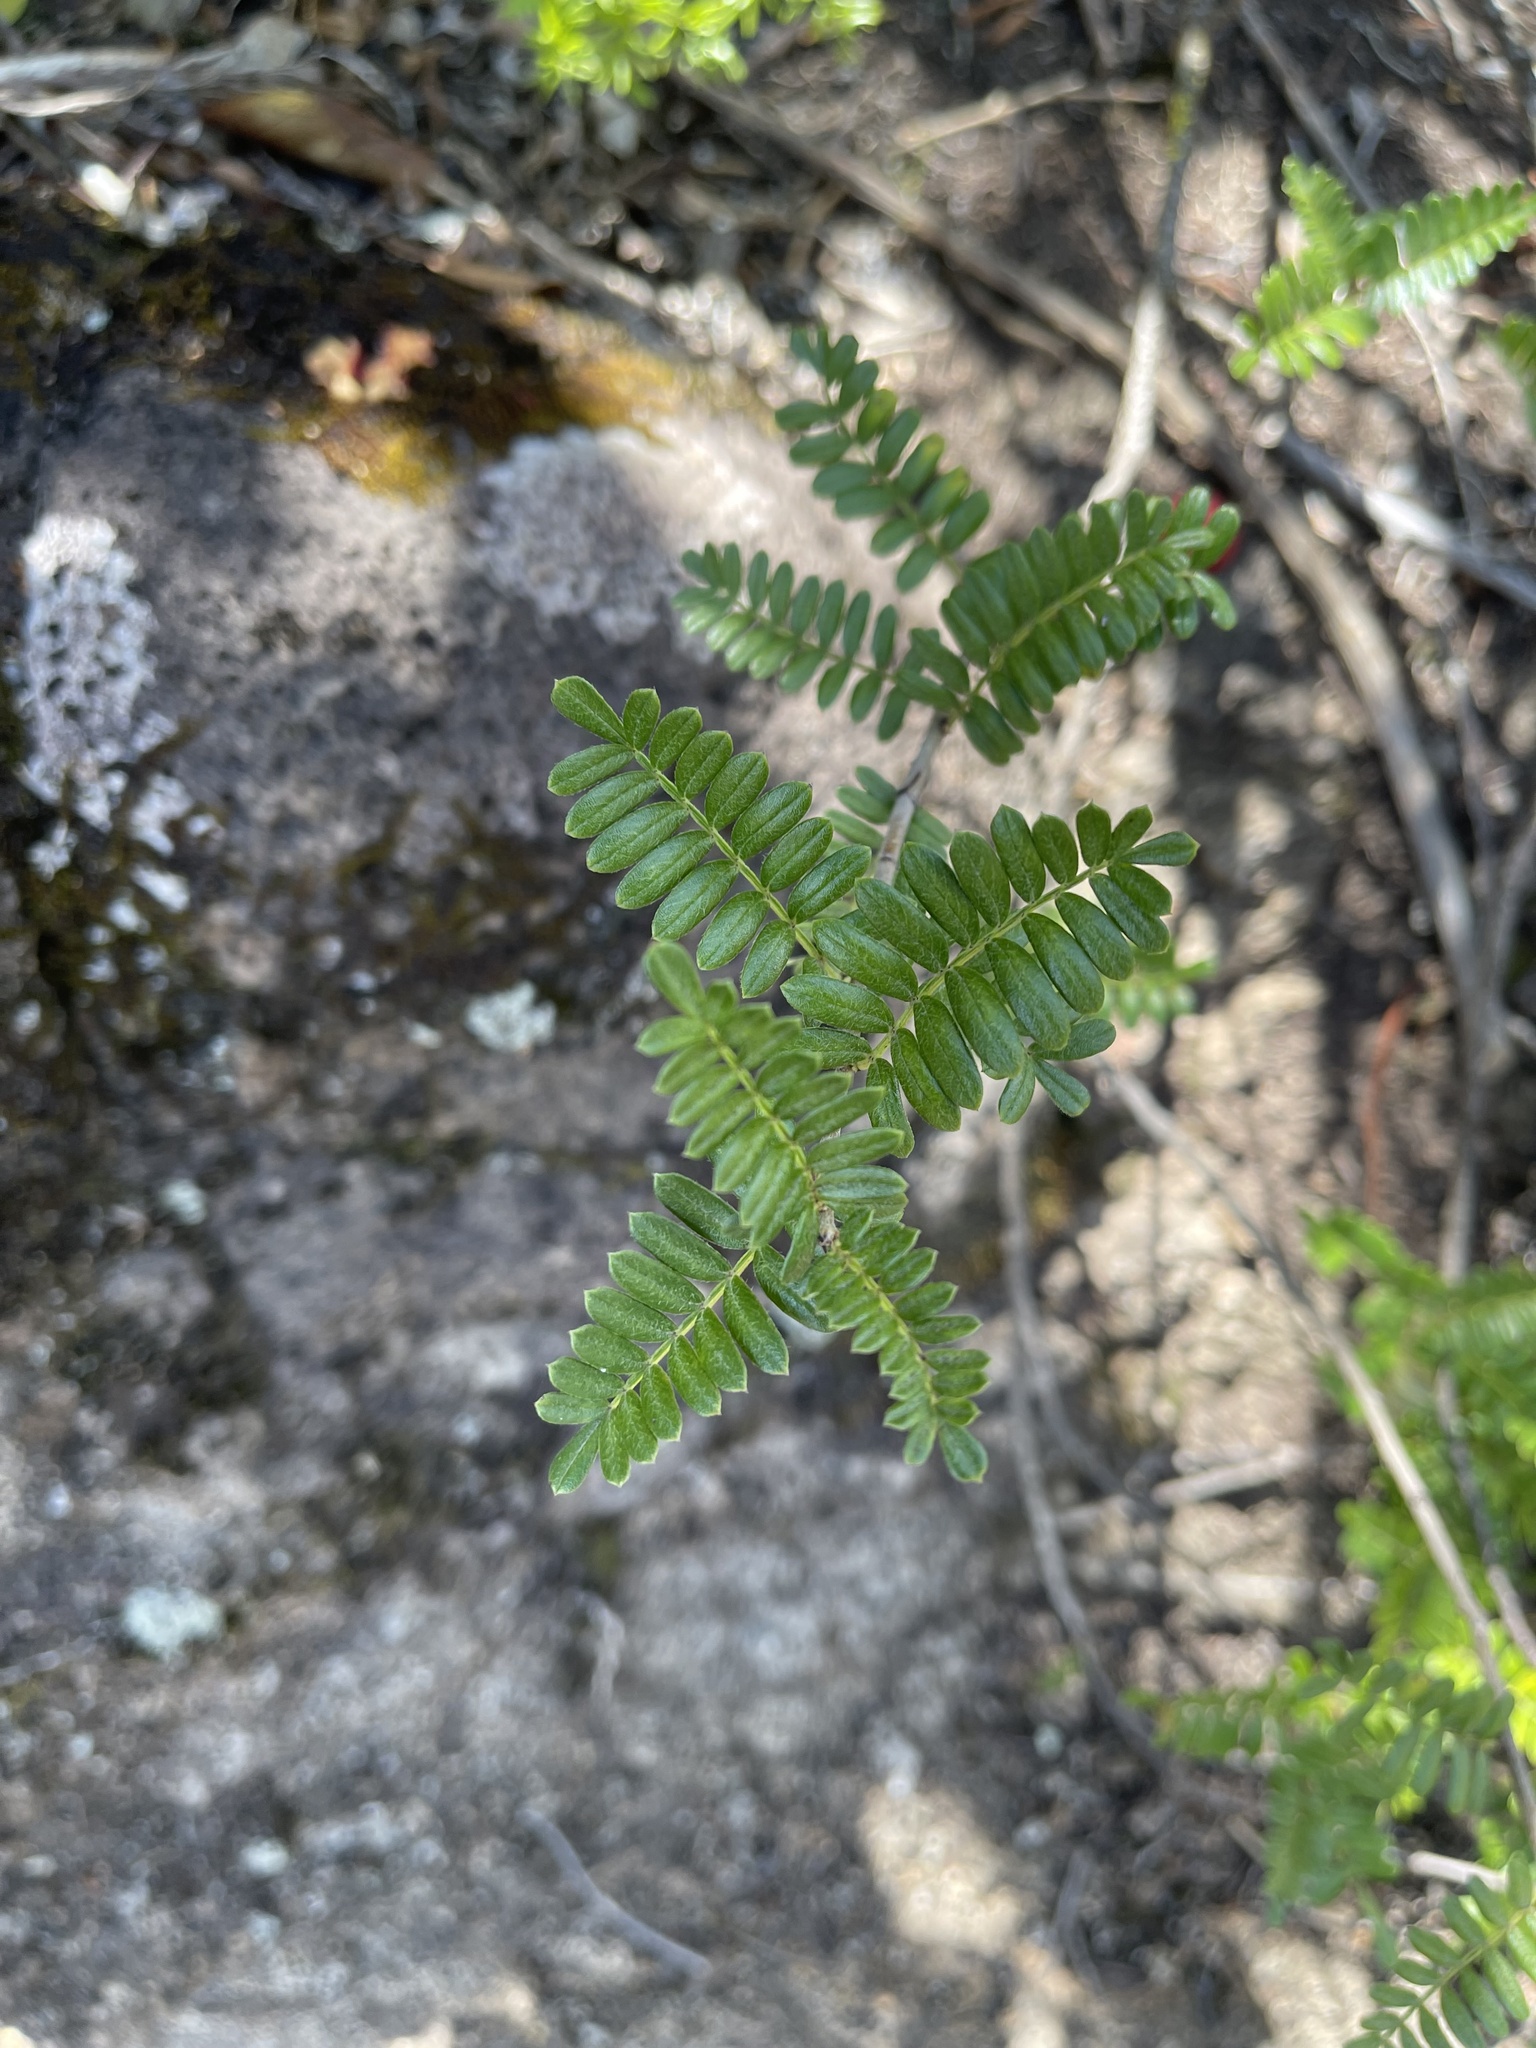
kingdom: Plantae
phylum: Tracheophyta
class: Magnoliopsida
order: Rosales
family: Rosaceae
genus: Osteomeles
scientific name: Osteomeles anthyllidifolia
